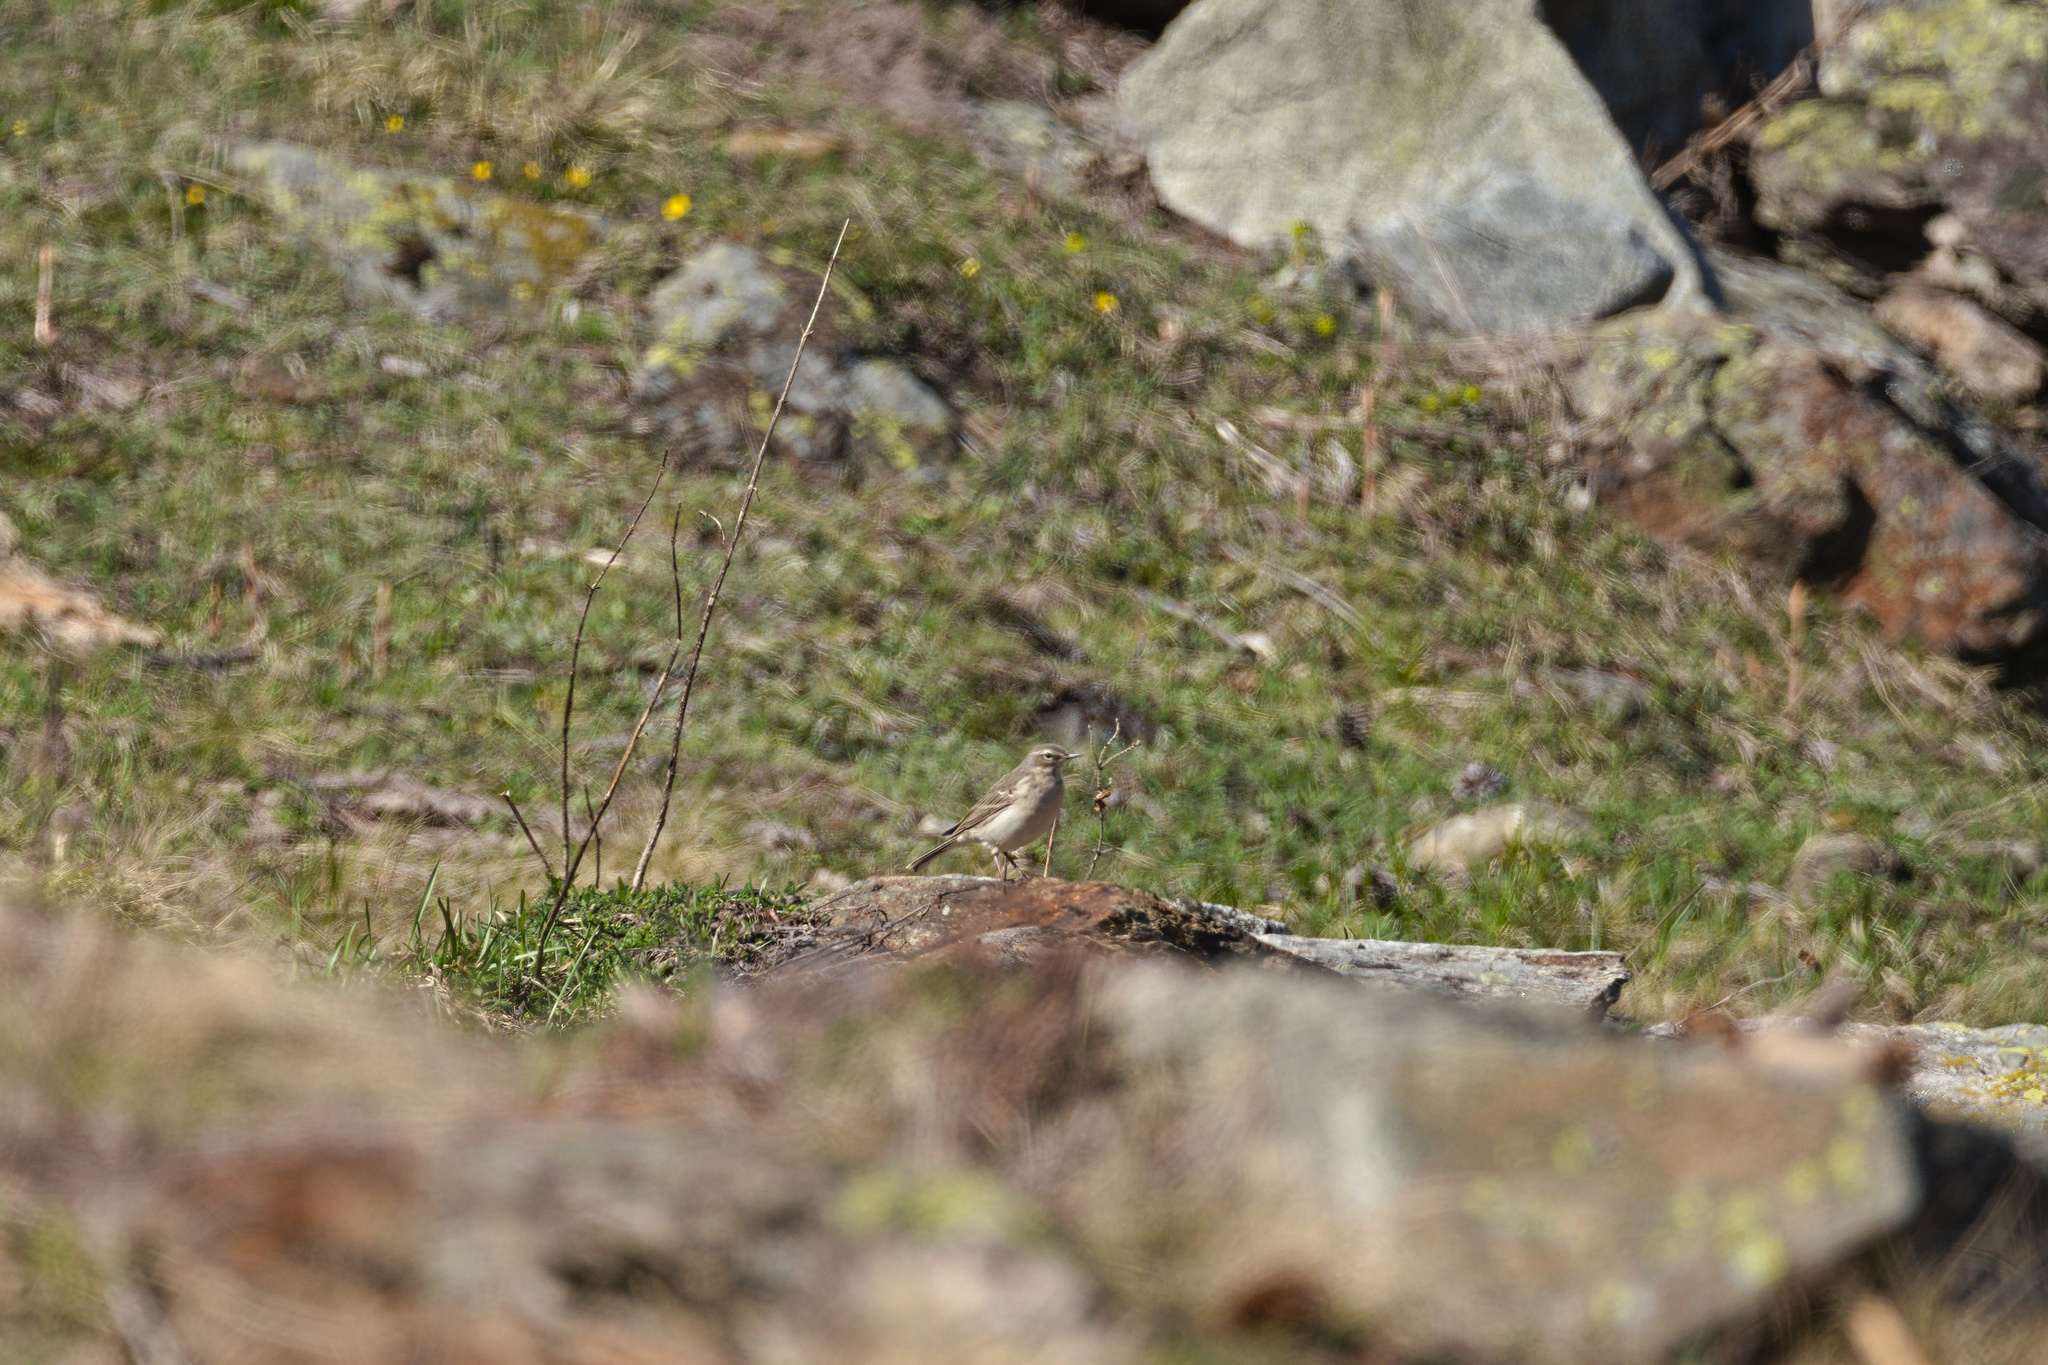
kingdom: Animalia
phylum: Chordata
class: Aves
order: Passeriformes
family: Motacillidae
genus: Anthus
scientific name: Anthus spinoletta
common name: Water pipit
